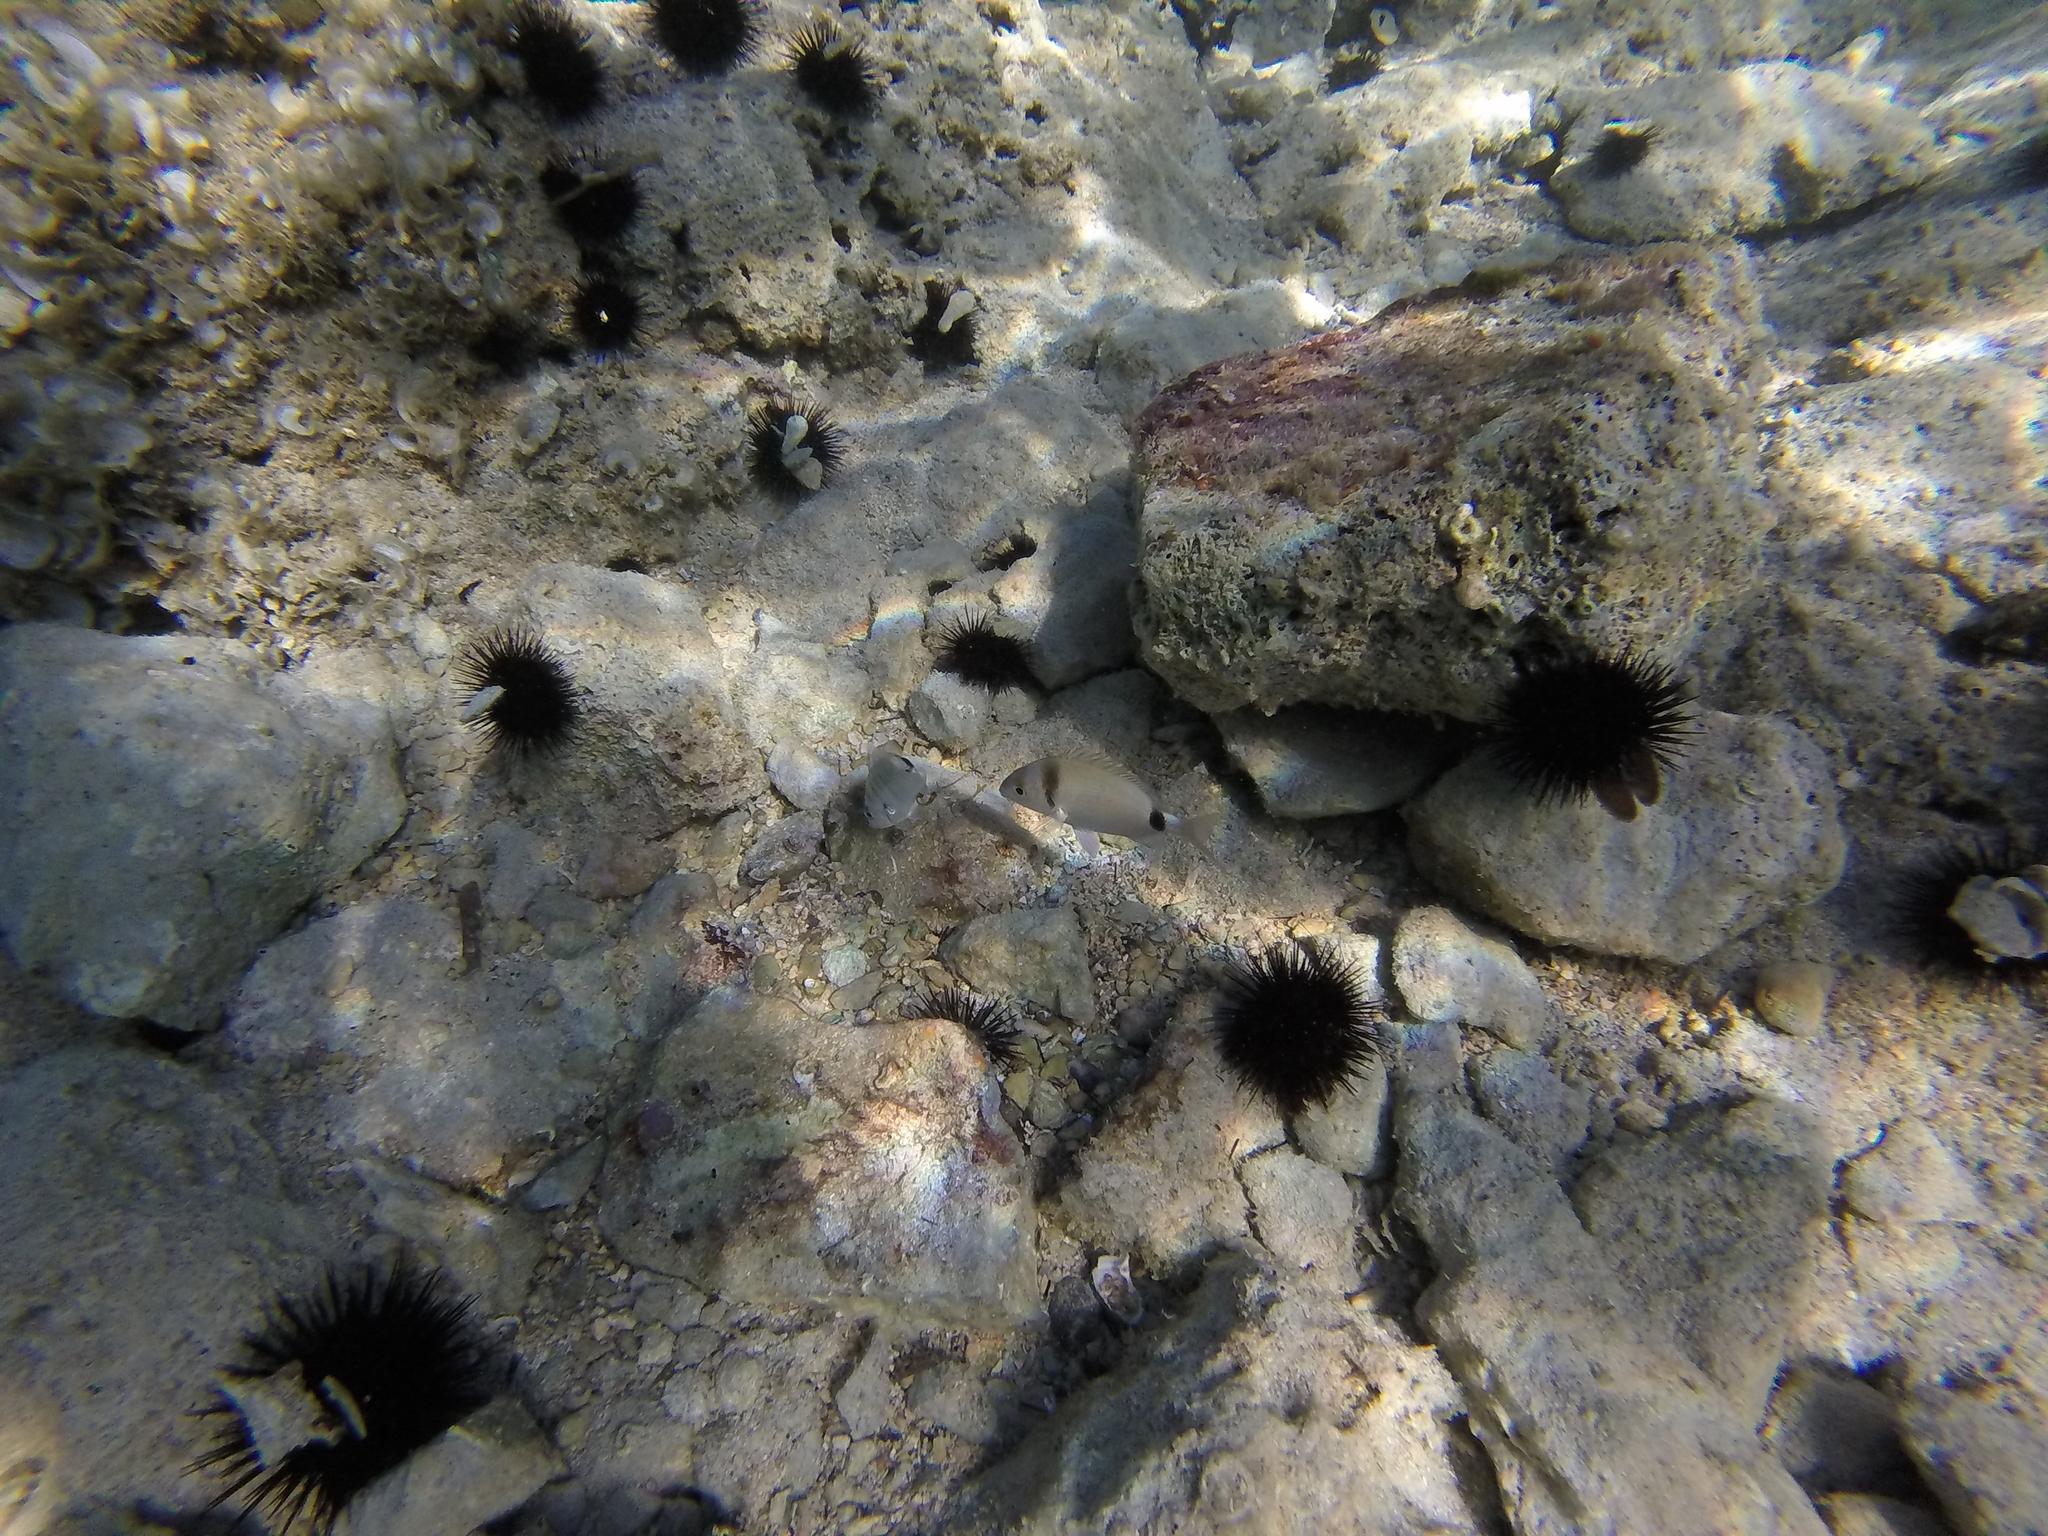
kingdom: Animalia
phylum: Chordata
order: Perciformes
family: Sparidae
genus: Diplodus
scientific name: Diplodus vulgaris
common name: Common two-banded seabream
